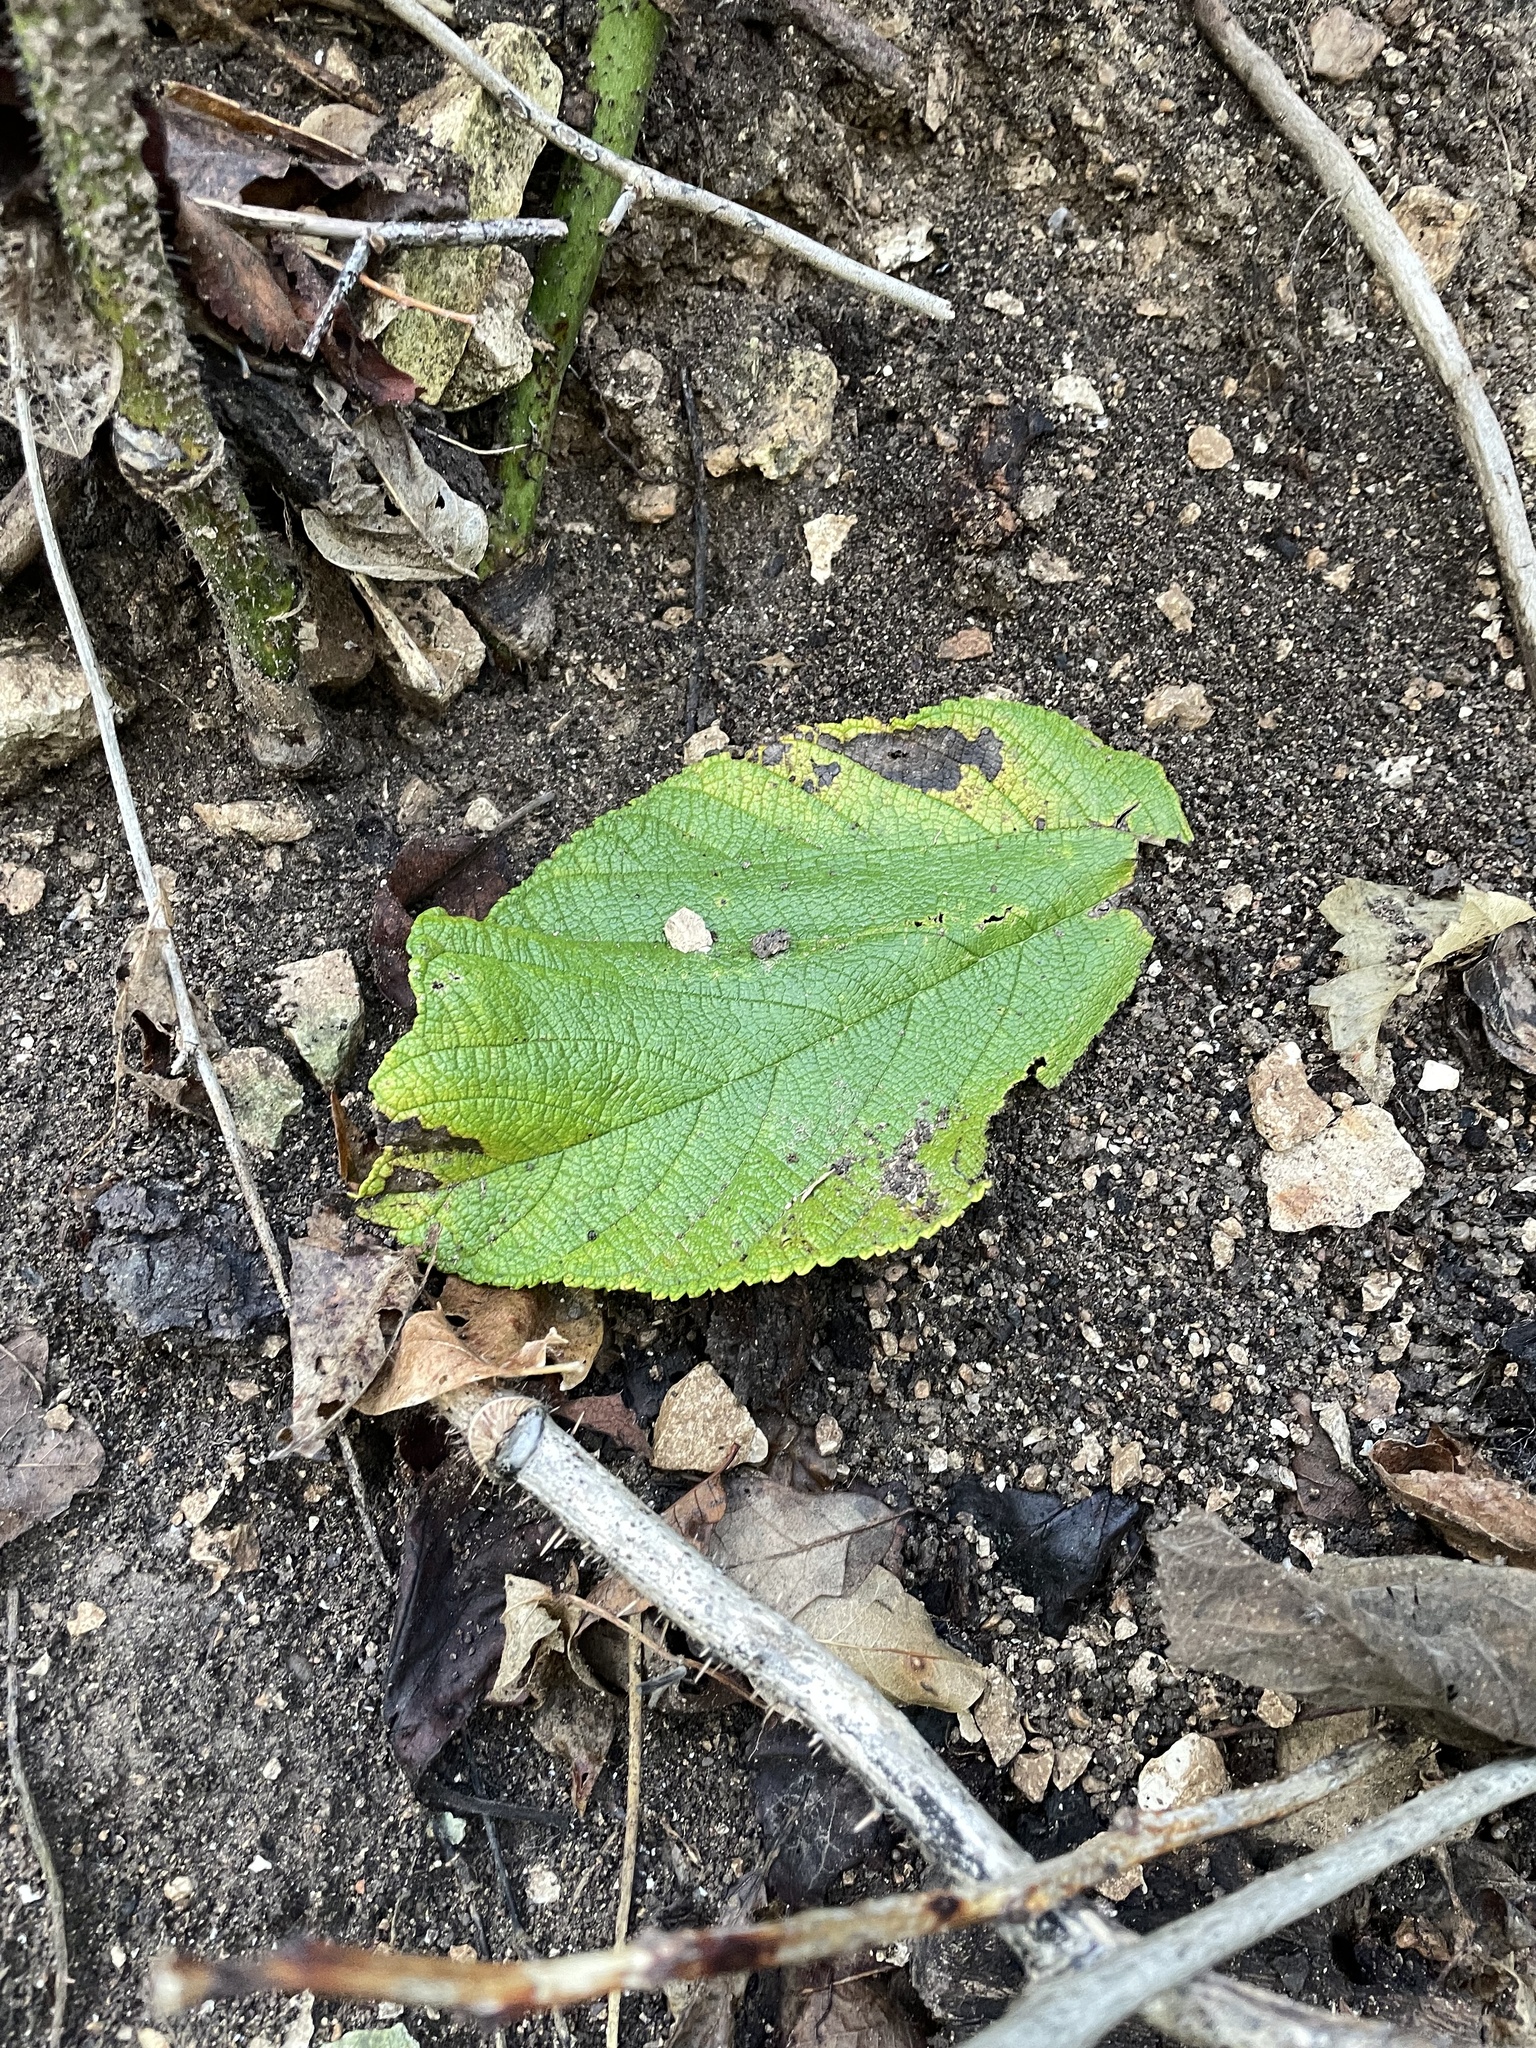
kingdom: Plantae
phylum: Tracheophyta
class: Magnoliopsida
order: Rosales
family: Moraceae
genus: Morus
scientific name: Morus rubra
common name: Red mulberry
